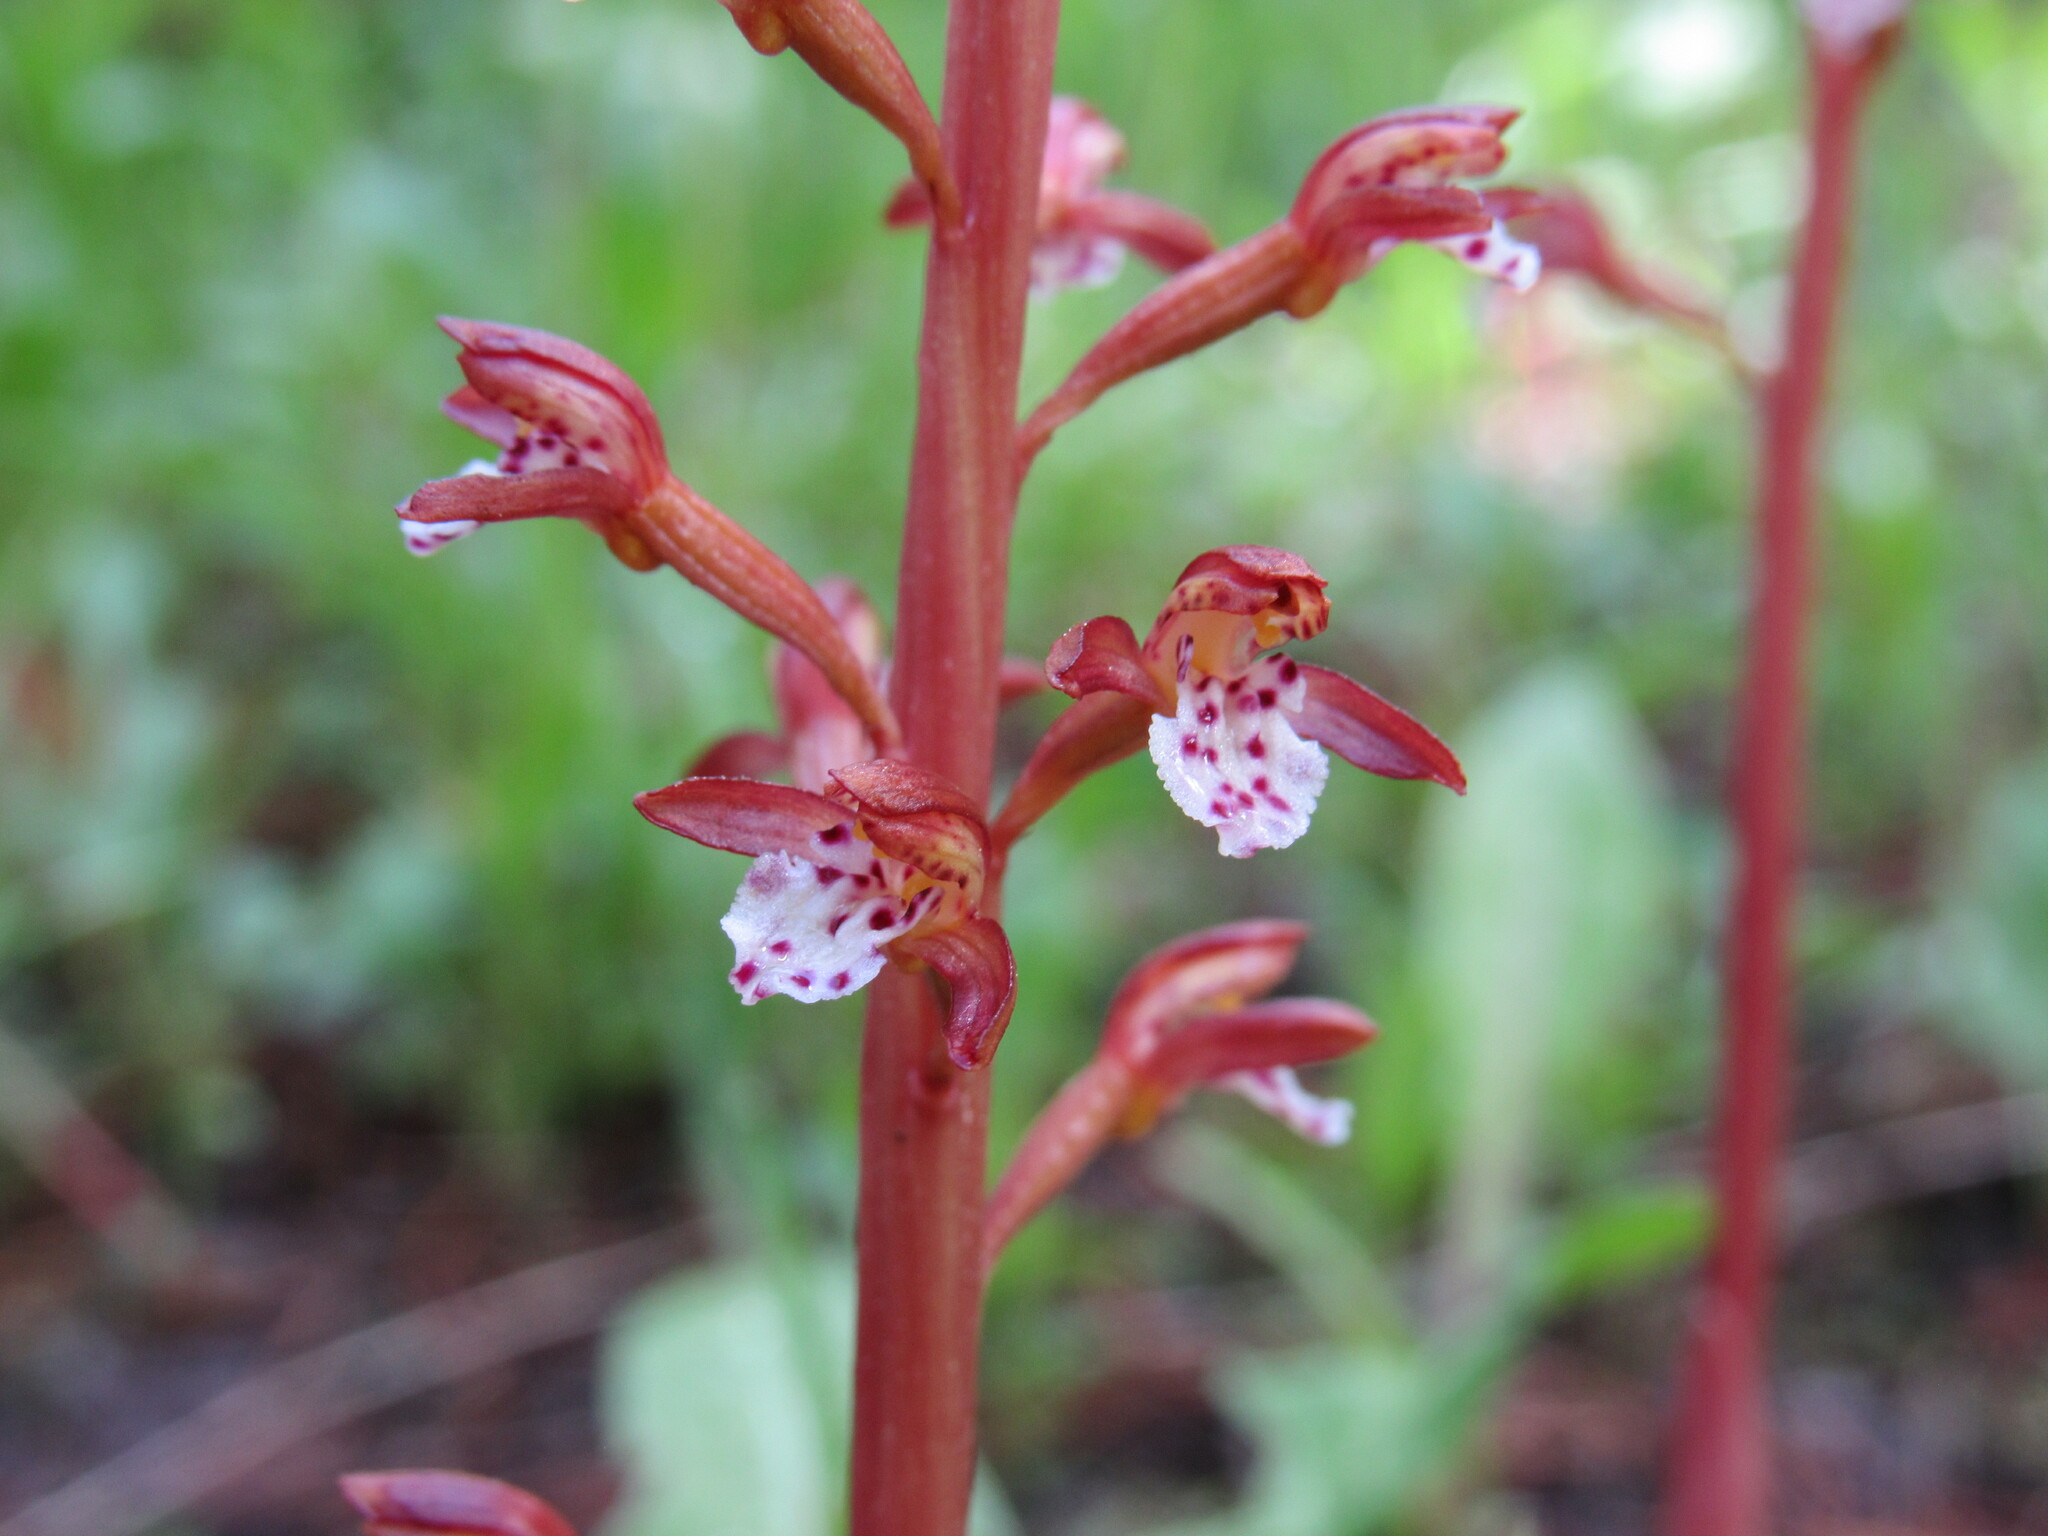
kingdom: Plantae
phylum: Tracheophyta
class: Liliopsida
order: Asparagales
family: Orchidaceae
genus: Corallorhiza
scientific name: Corallorhiza maculata
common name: Spotted coralroot
